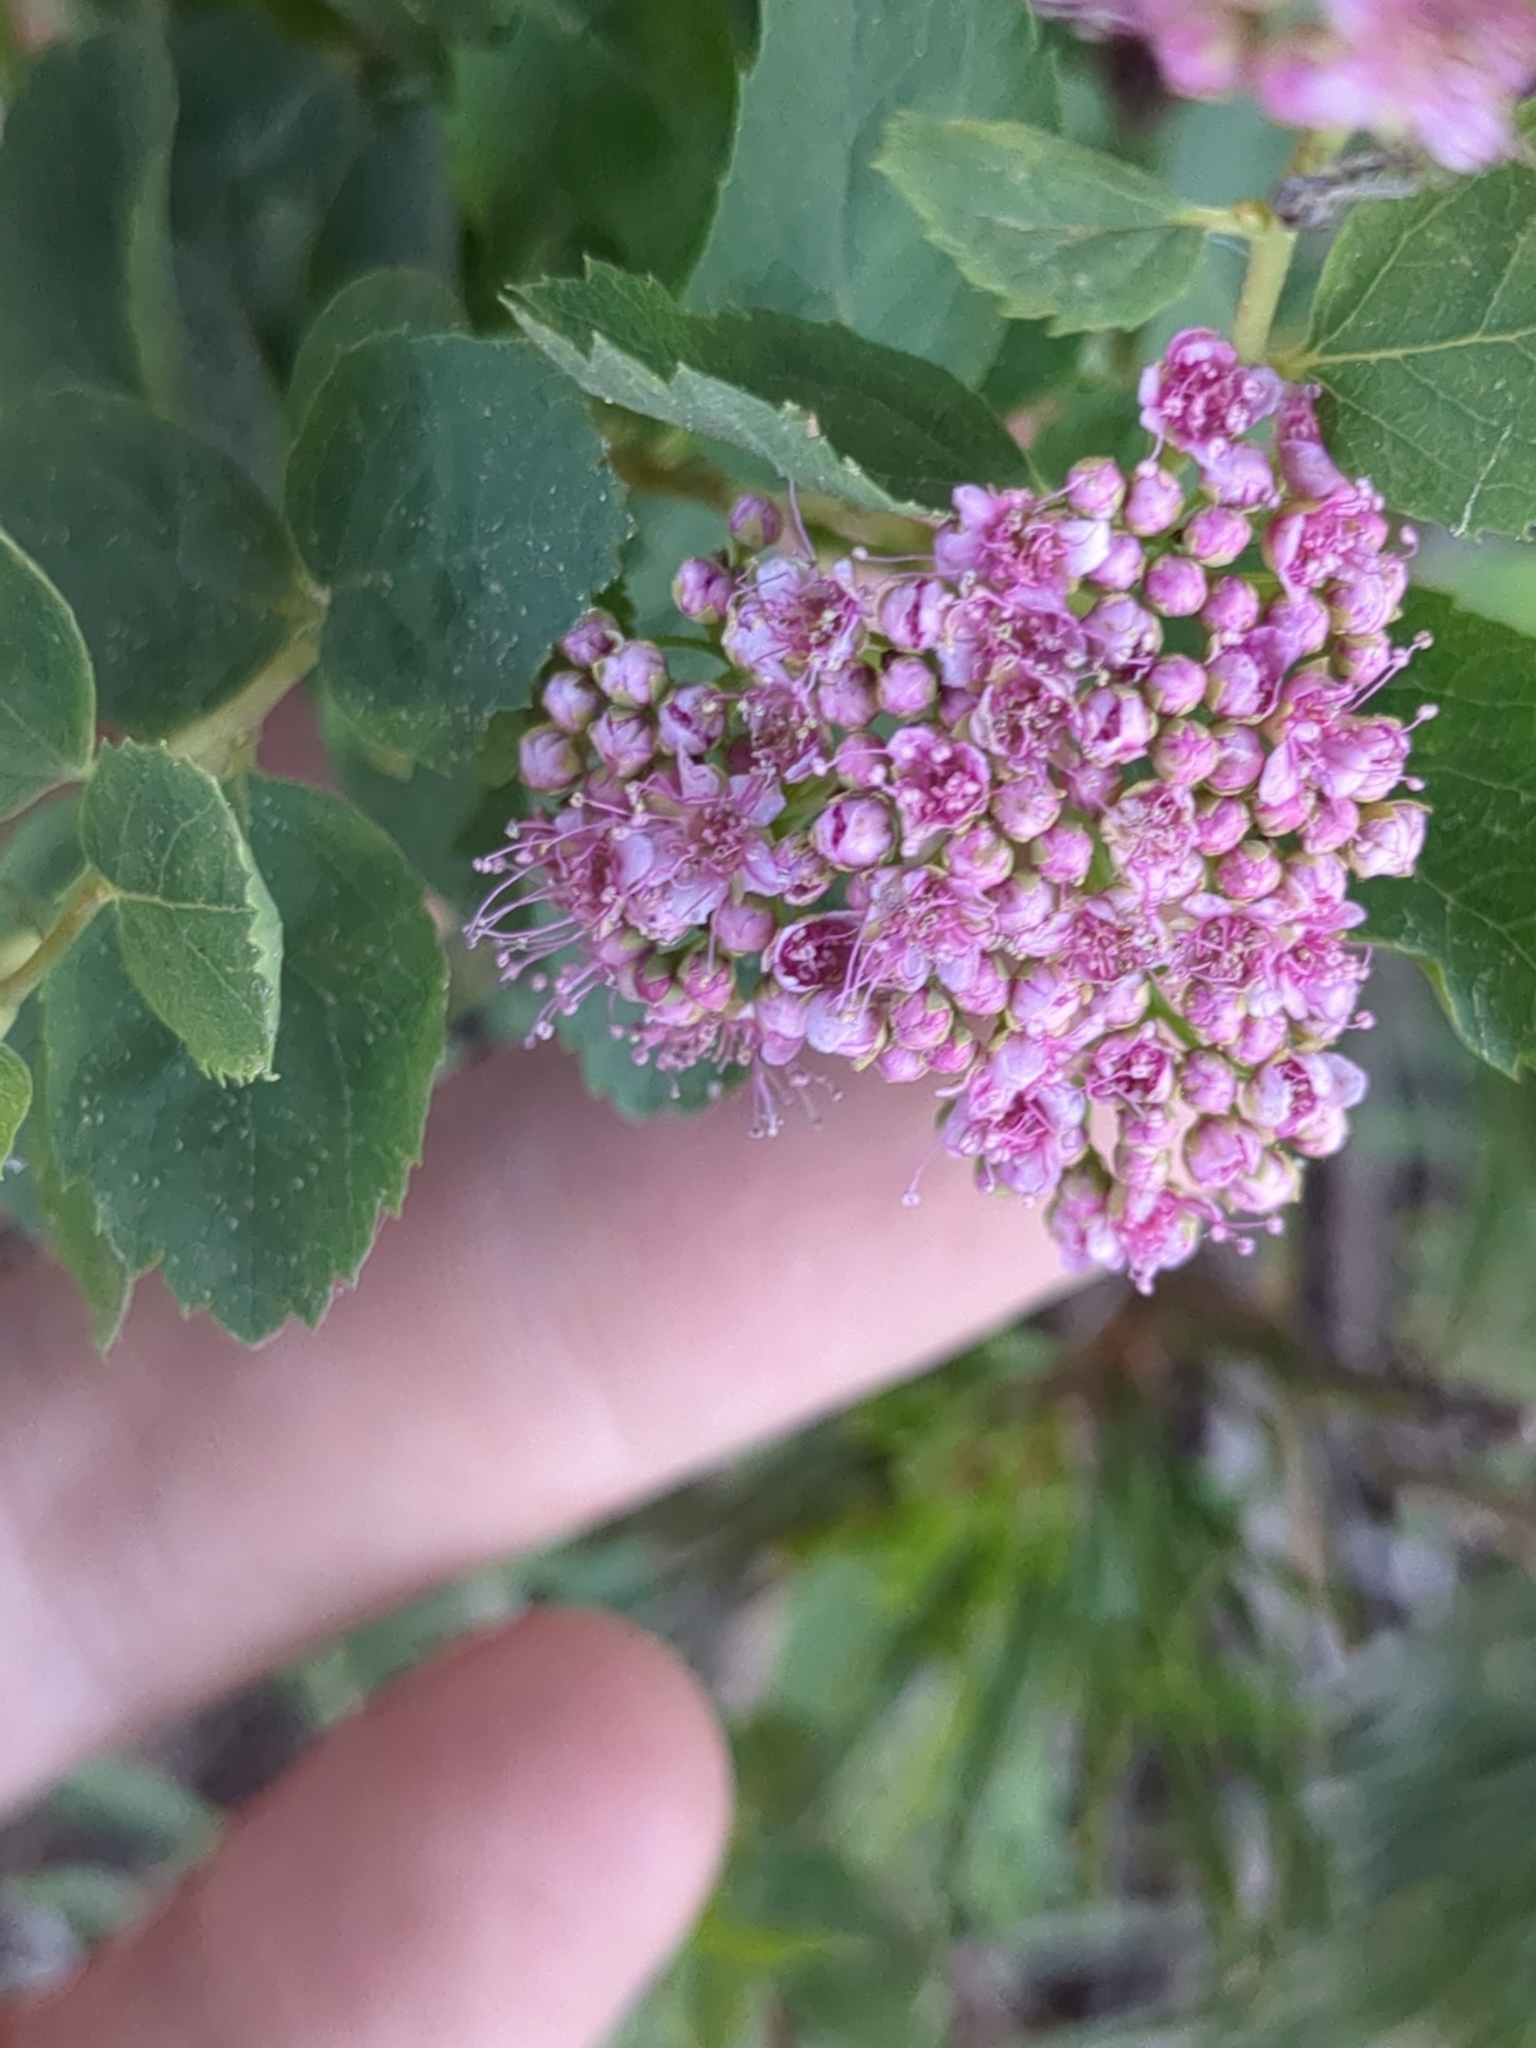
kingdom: Plantae
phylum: Tracheophyta
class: Magnoliopsida
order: Rosales
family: Rosaceae
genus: Spiraea
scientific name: Spiraea splendens
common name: Subalpine meadowsweet
